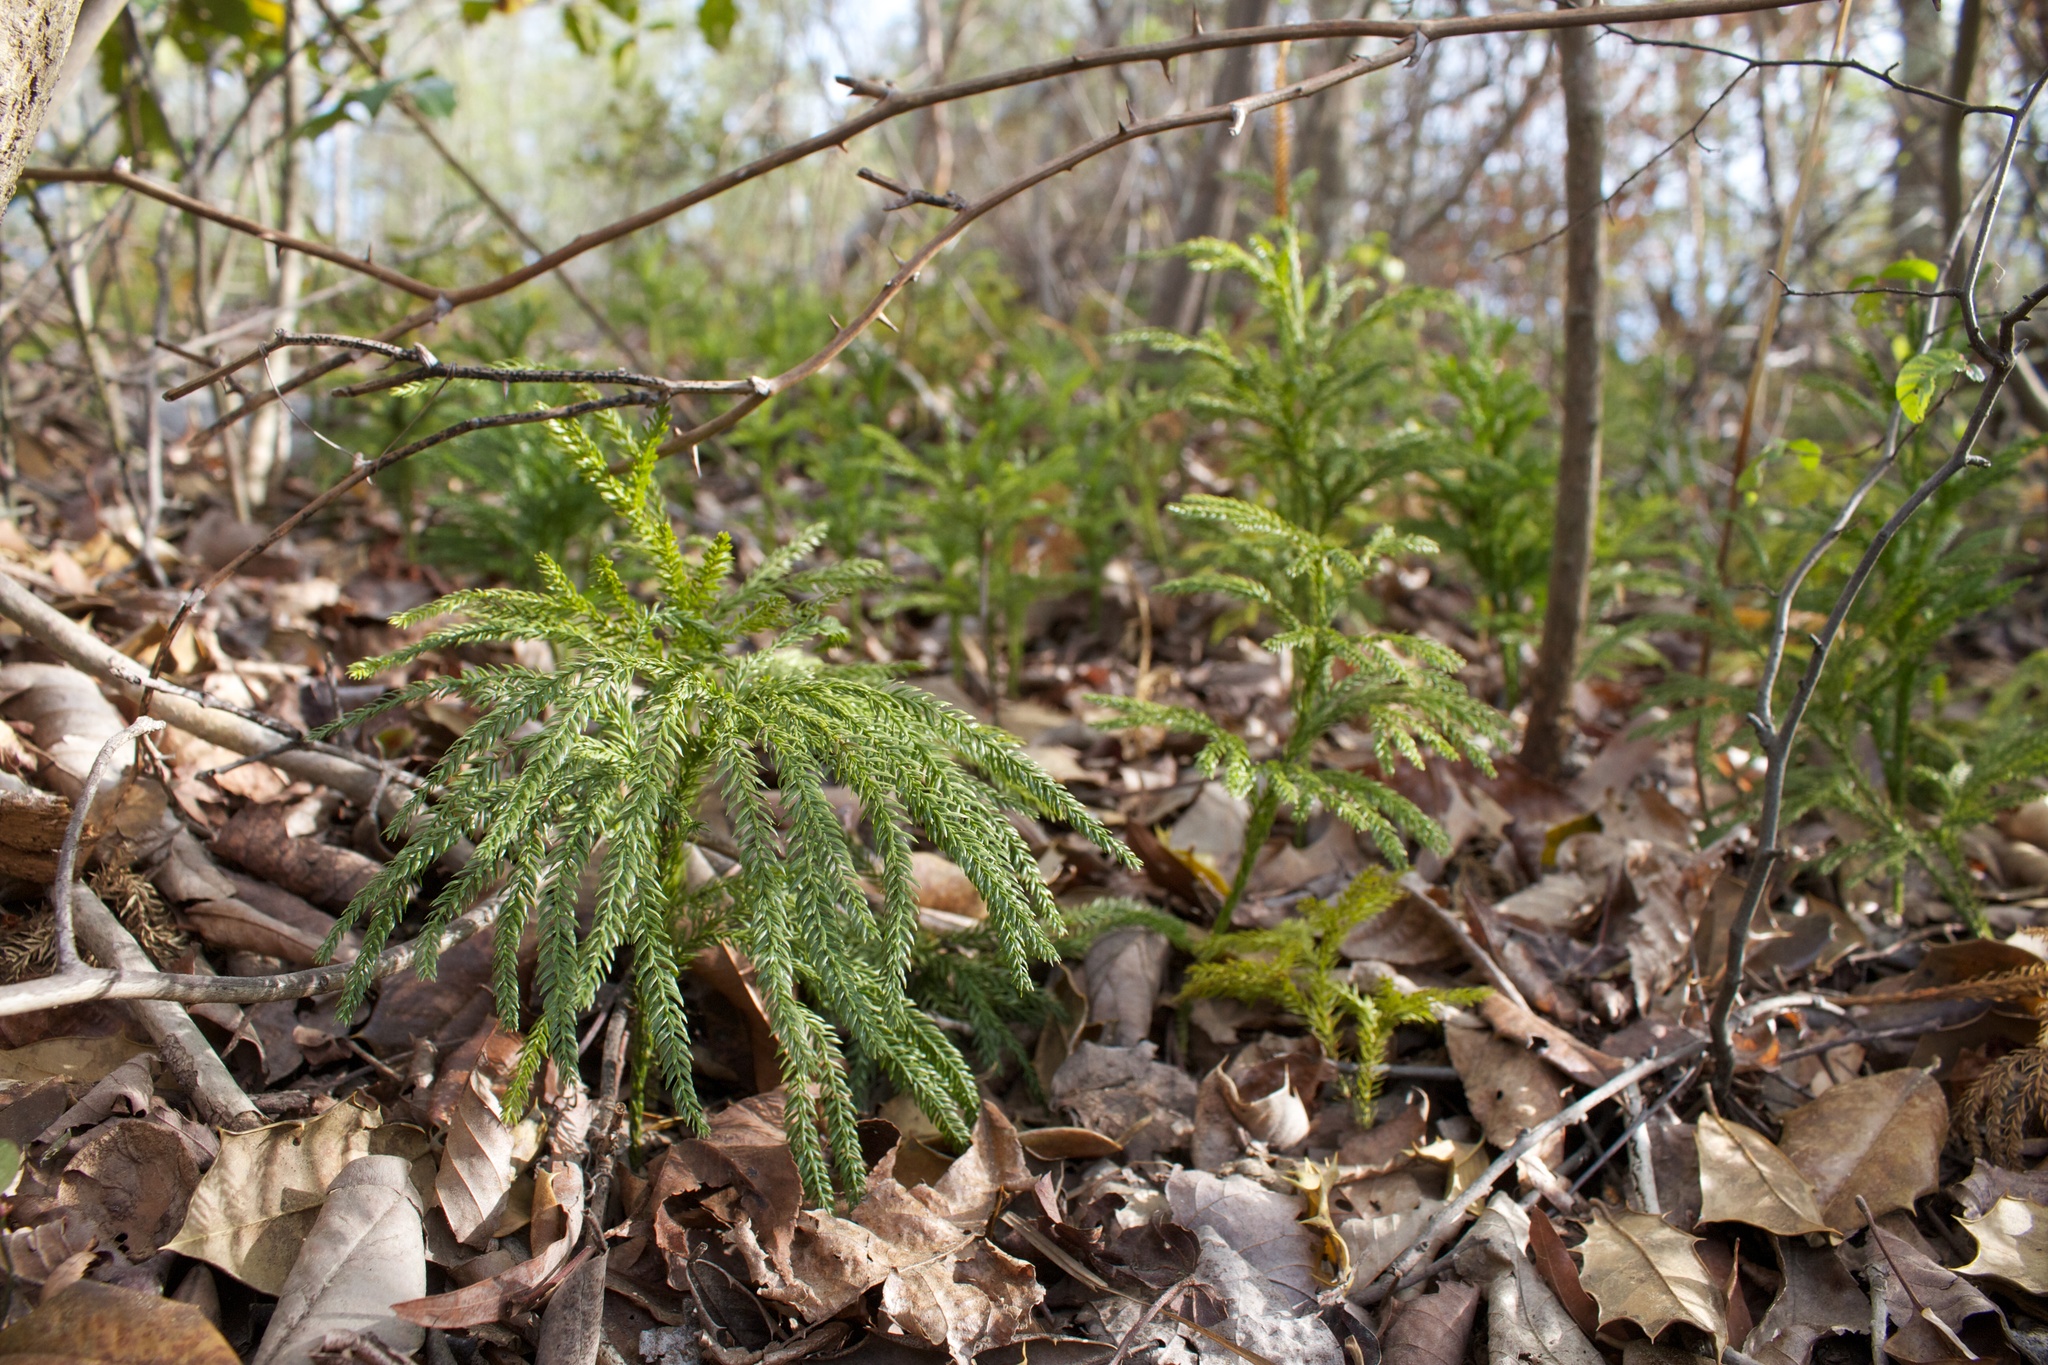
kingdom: Plantae
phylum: Tracheophyta
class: Lycopodiopsida
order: Lycopodiales
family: Lycopodiaceae
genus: Dendrolycopodium
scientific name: Dendrolycopodium obscurum
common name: Common ground-pine
